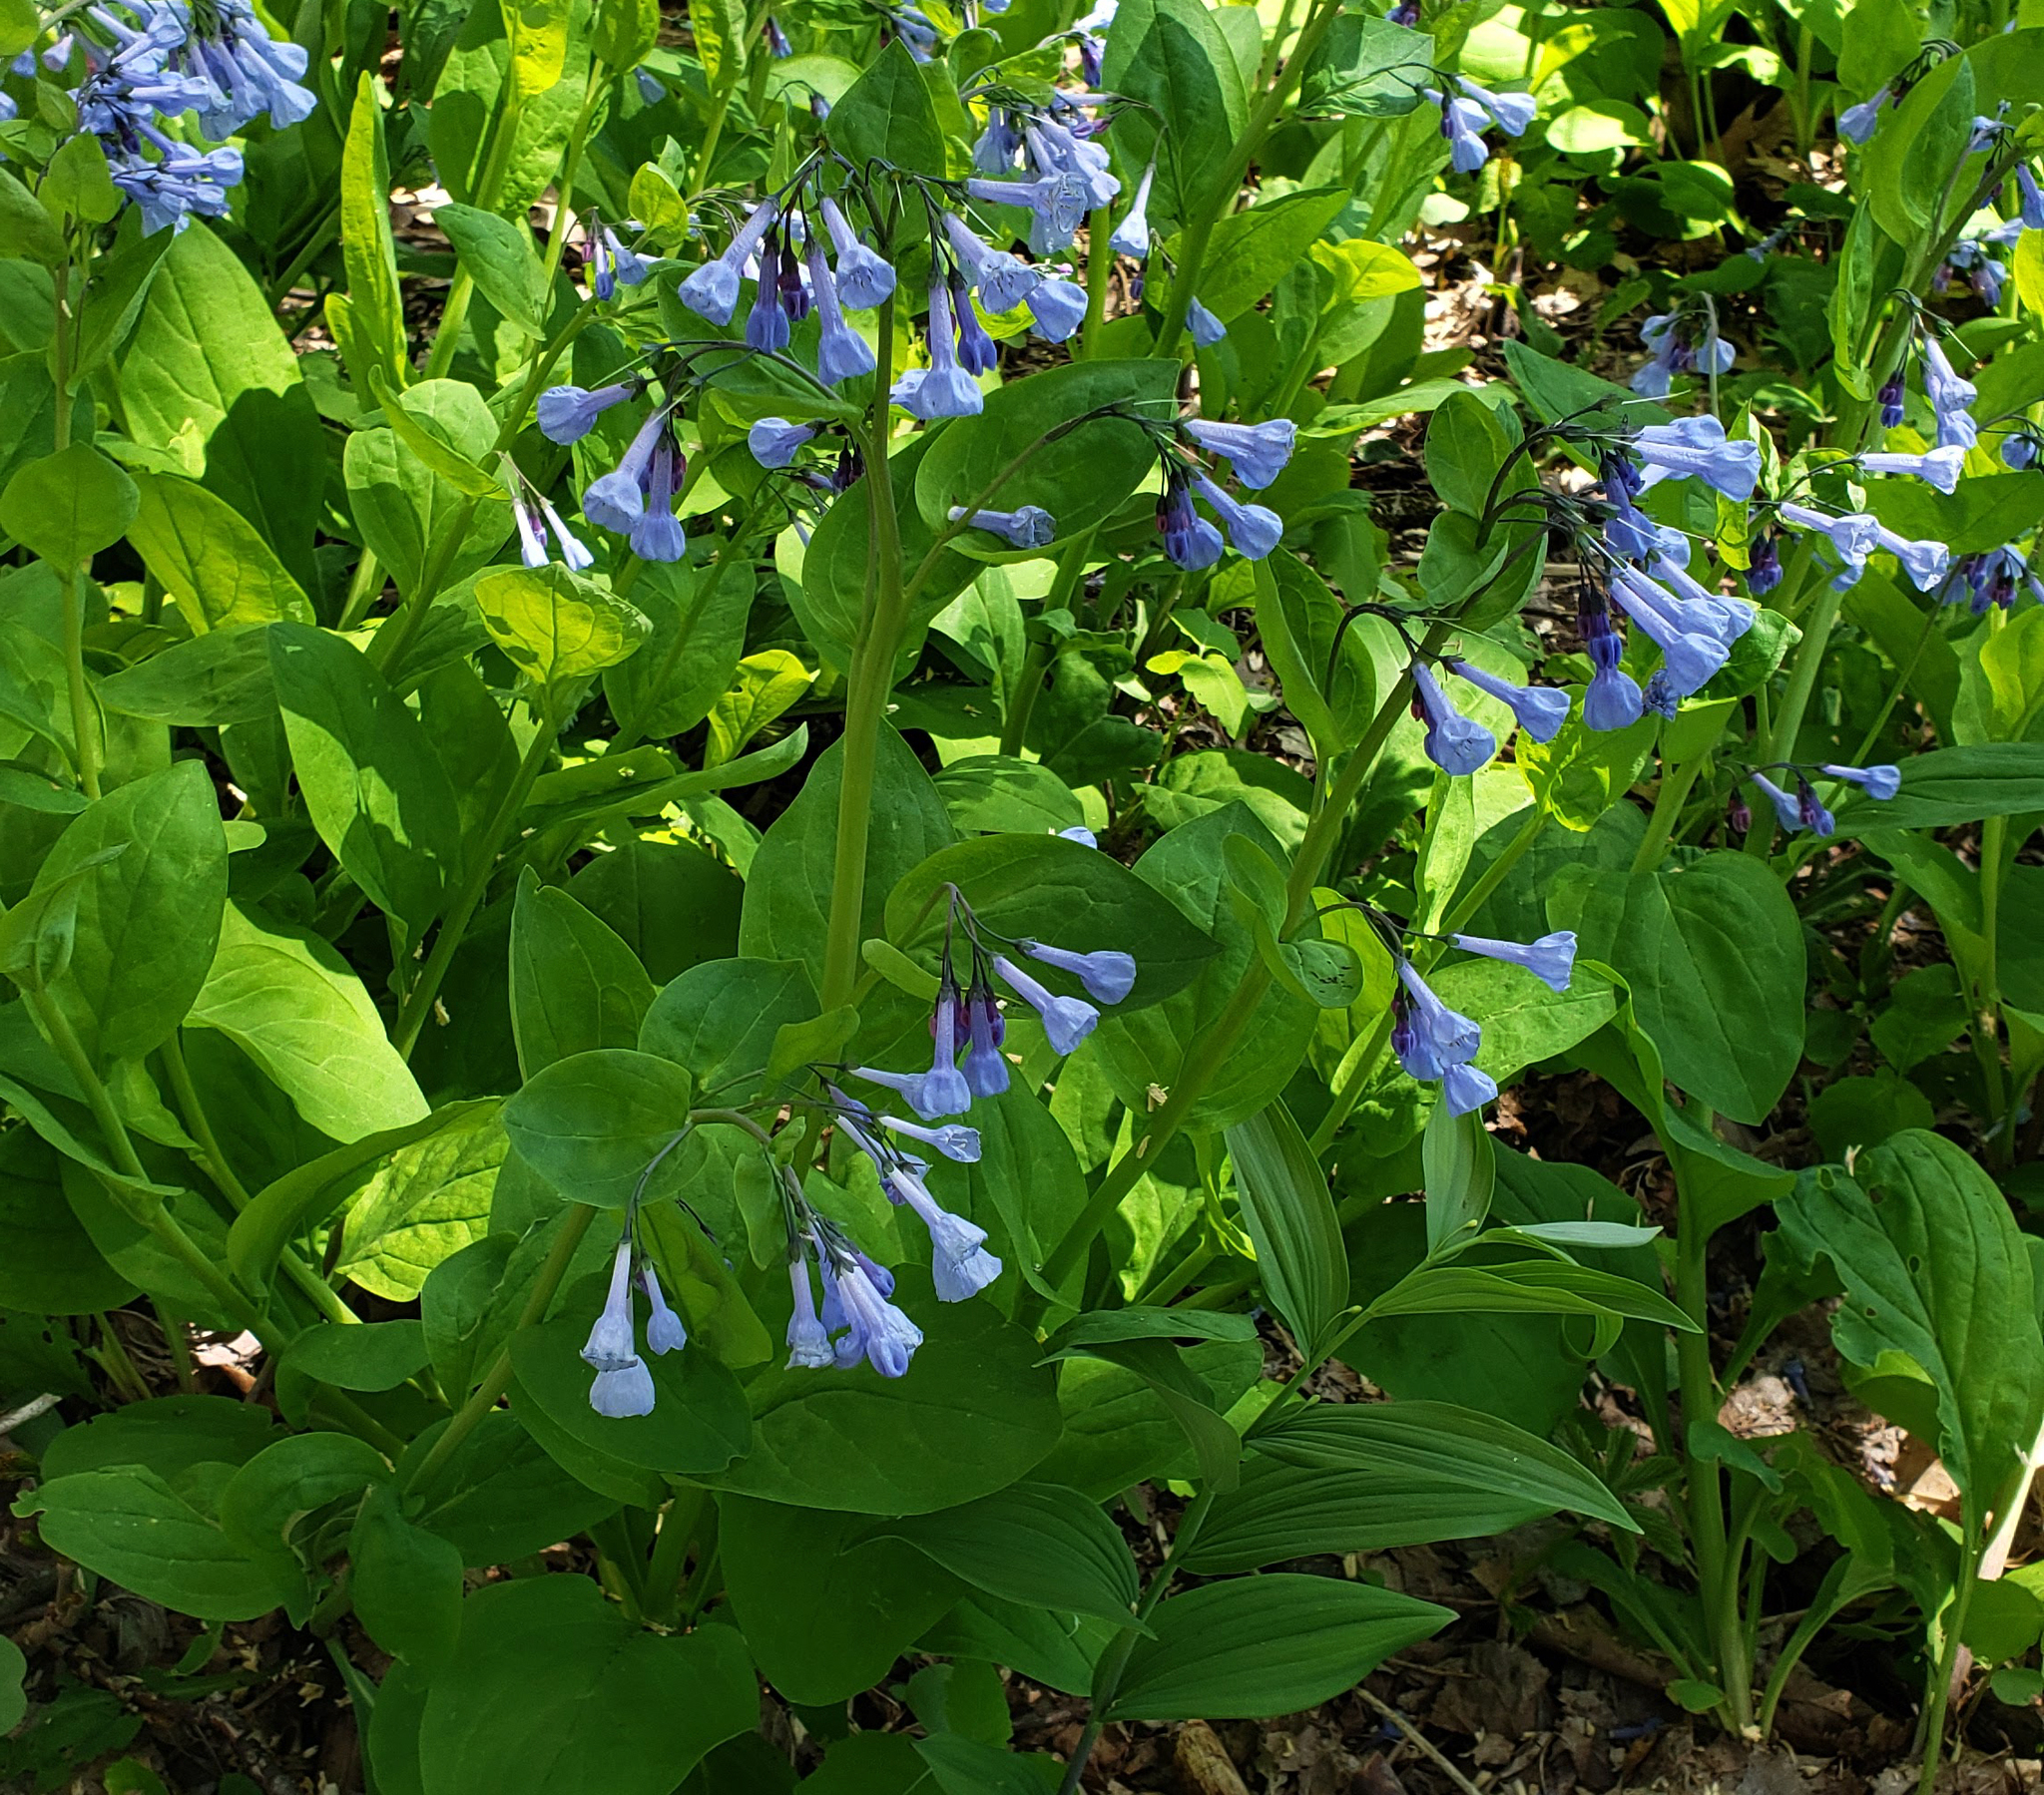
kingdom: Plantae
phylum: Tracheophyta
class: Magnoliopsida
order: Boraginales
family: Boraginaceae
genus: Mertensia
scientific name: Mertensia virginica
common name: Virginia bluebells
